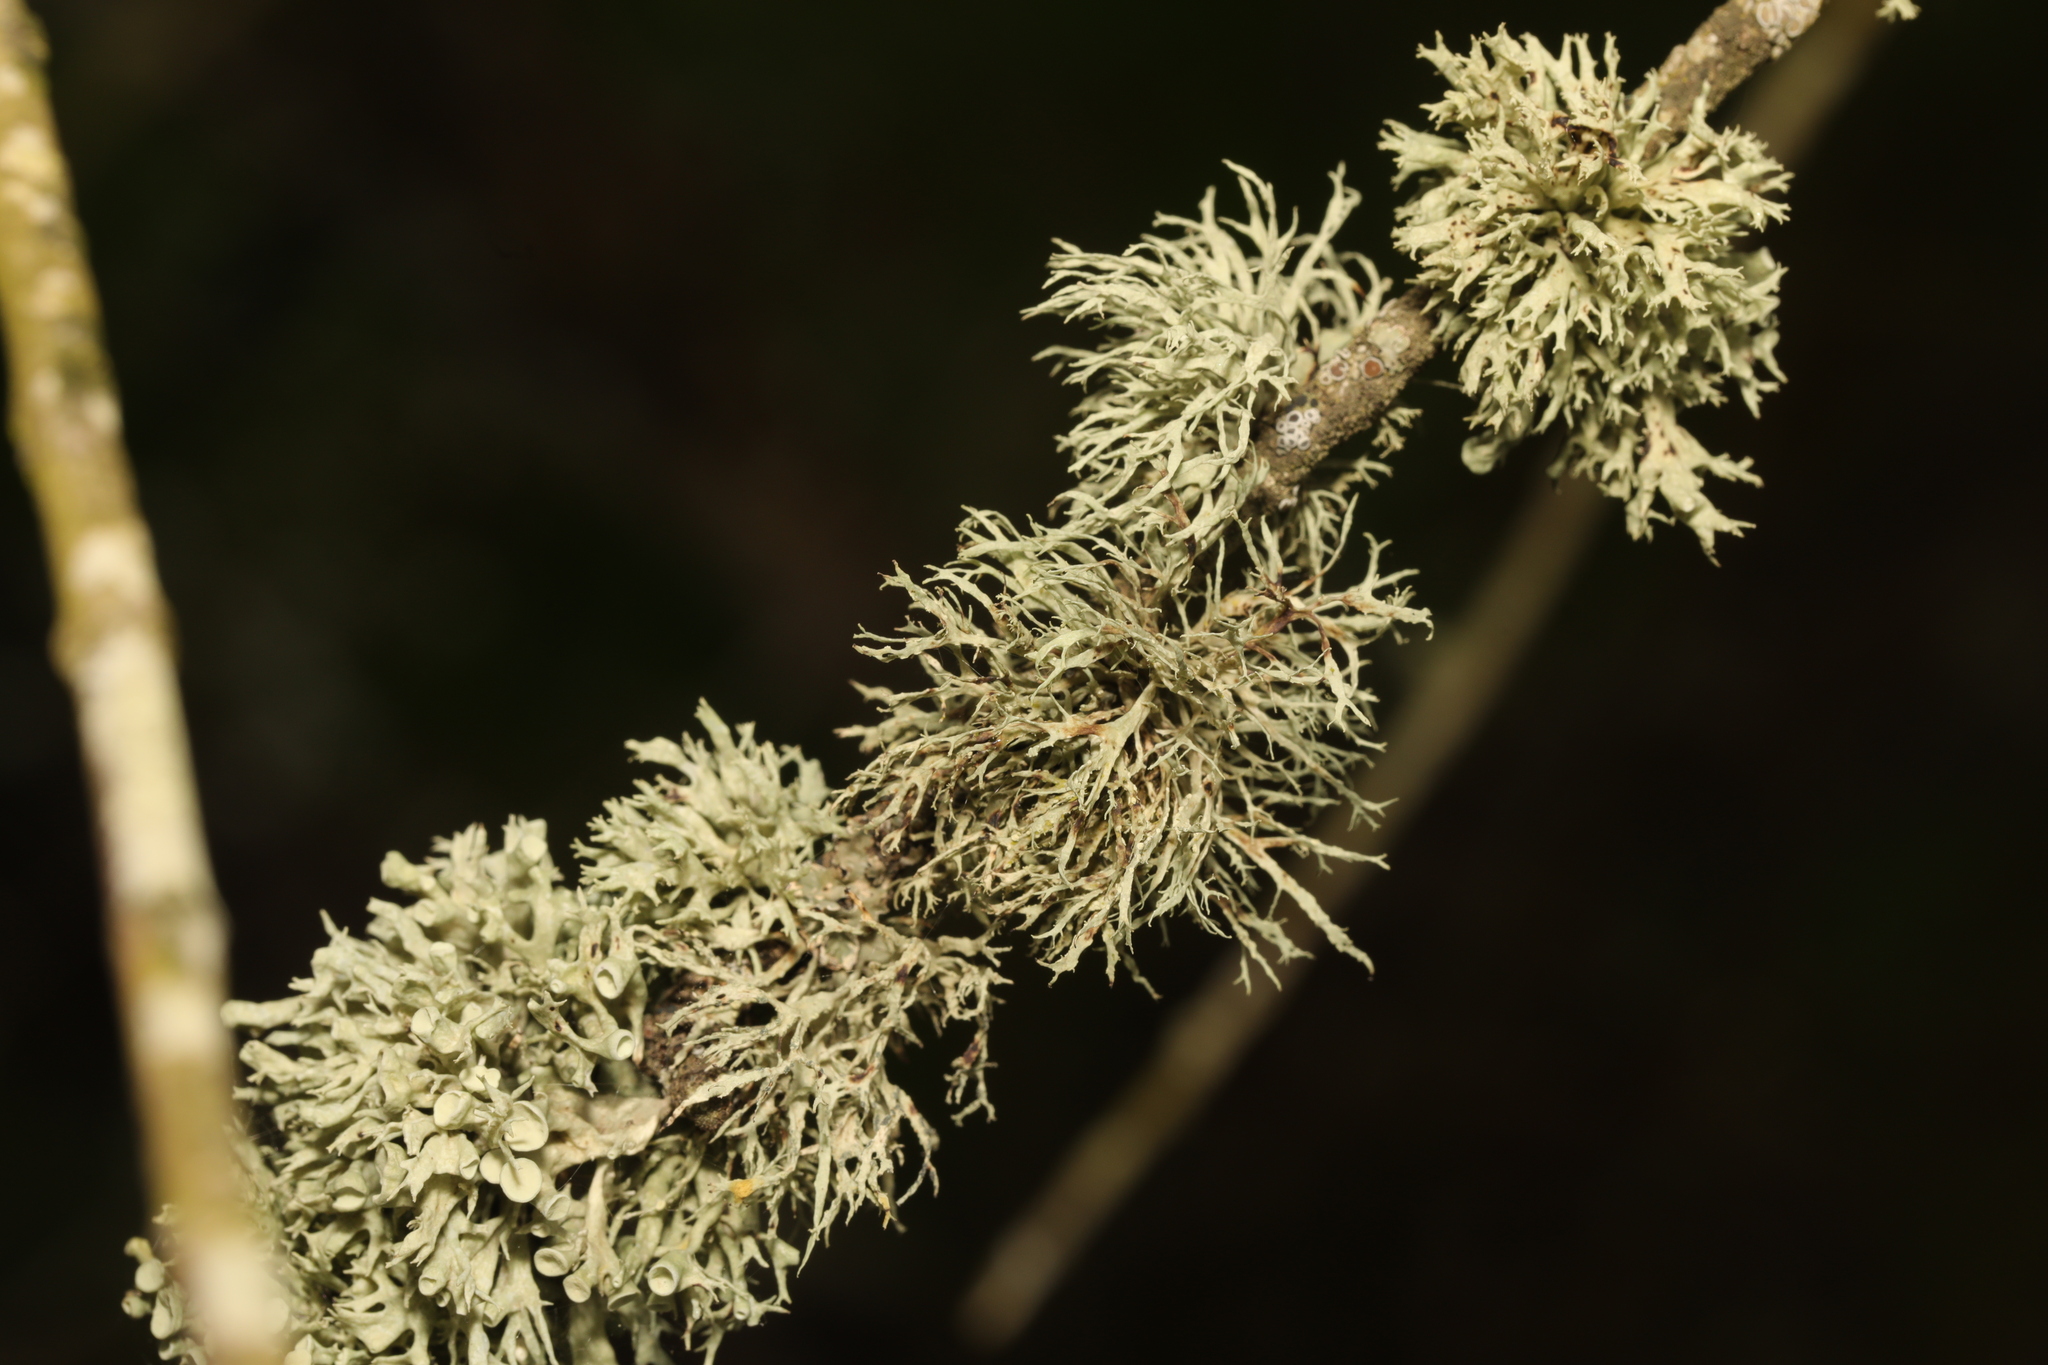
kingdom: Fungi
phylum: Ascomycota
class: Lecanoromycetes
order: Lecanorales
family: Ramalinaceae
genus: Ramalina
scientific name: Ramalina farinacea
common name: Farinose cartilage lichen
